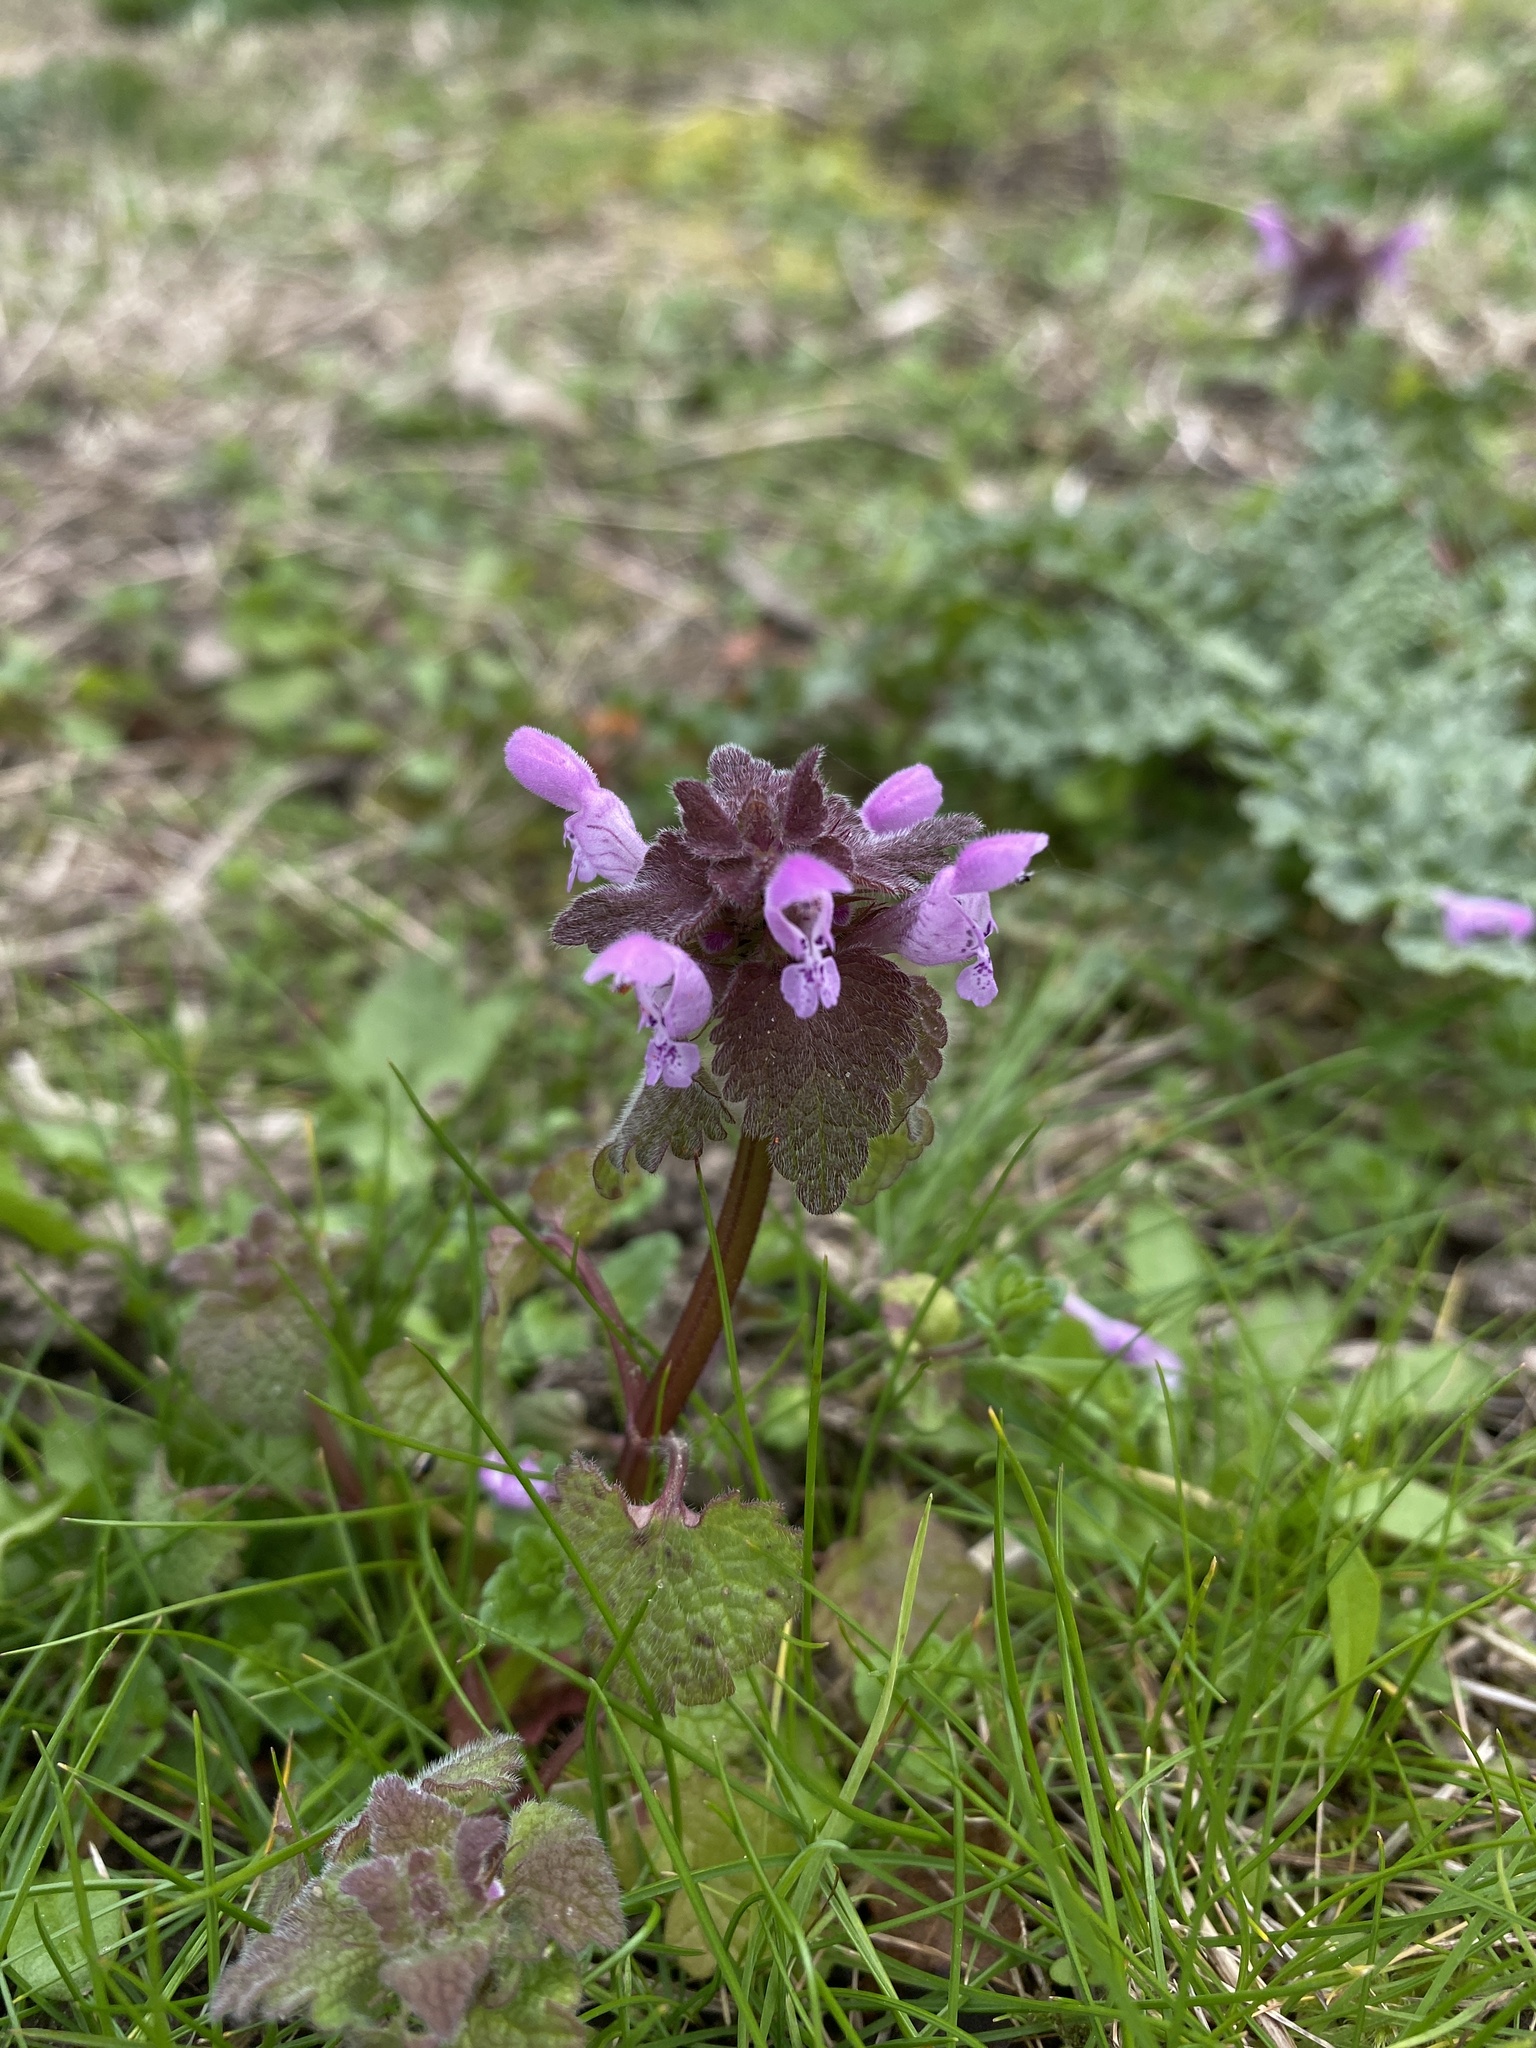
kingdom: Plantae
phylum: Tracheophyta
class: Magnoliopsida
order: Lamiales
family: Lamiaceae
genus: Lamium
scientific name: Lamium purpureum
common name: Red dead-nettle
